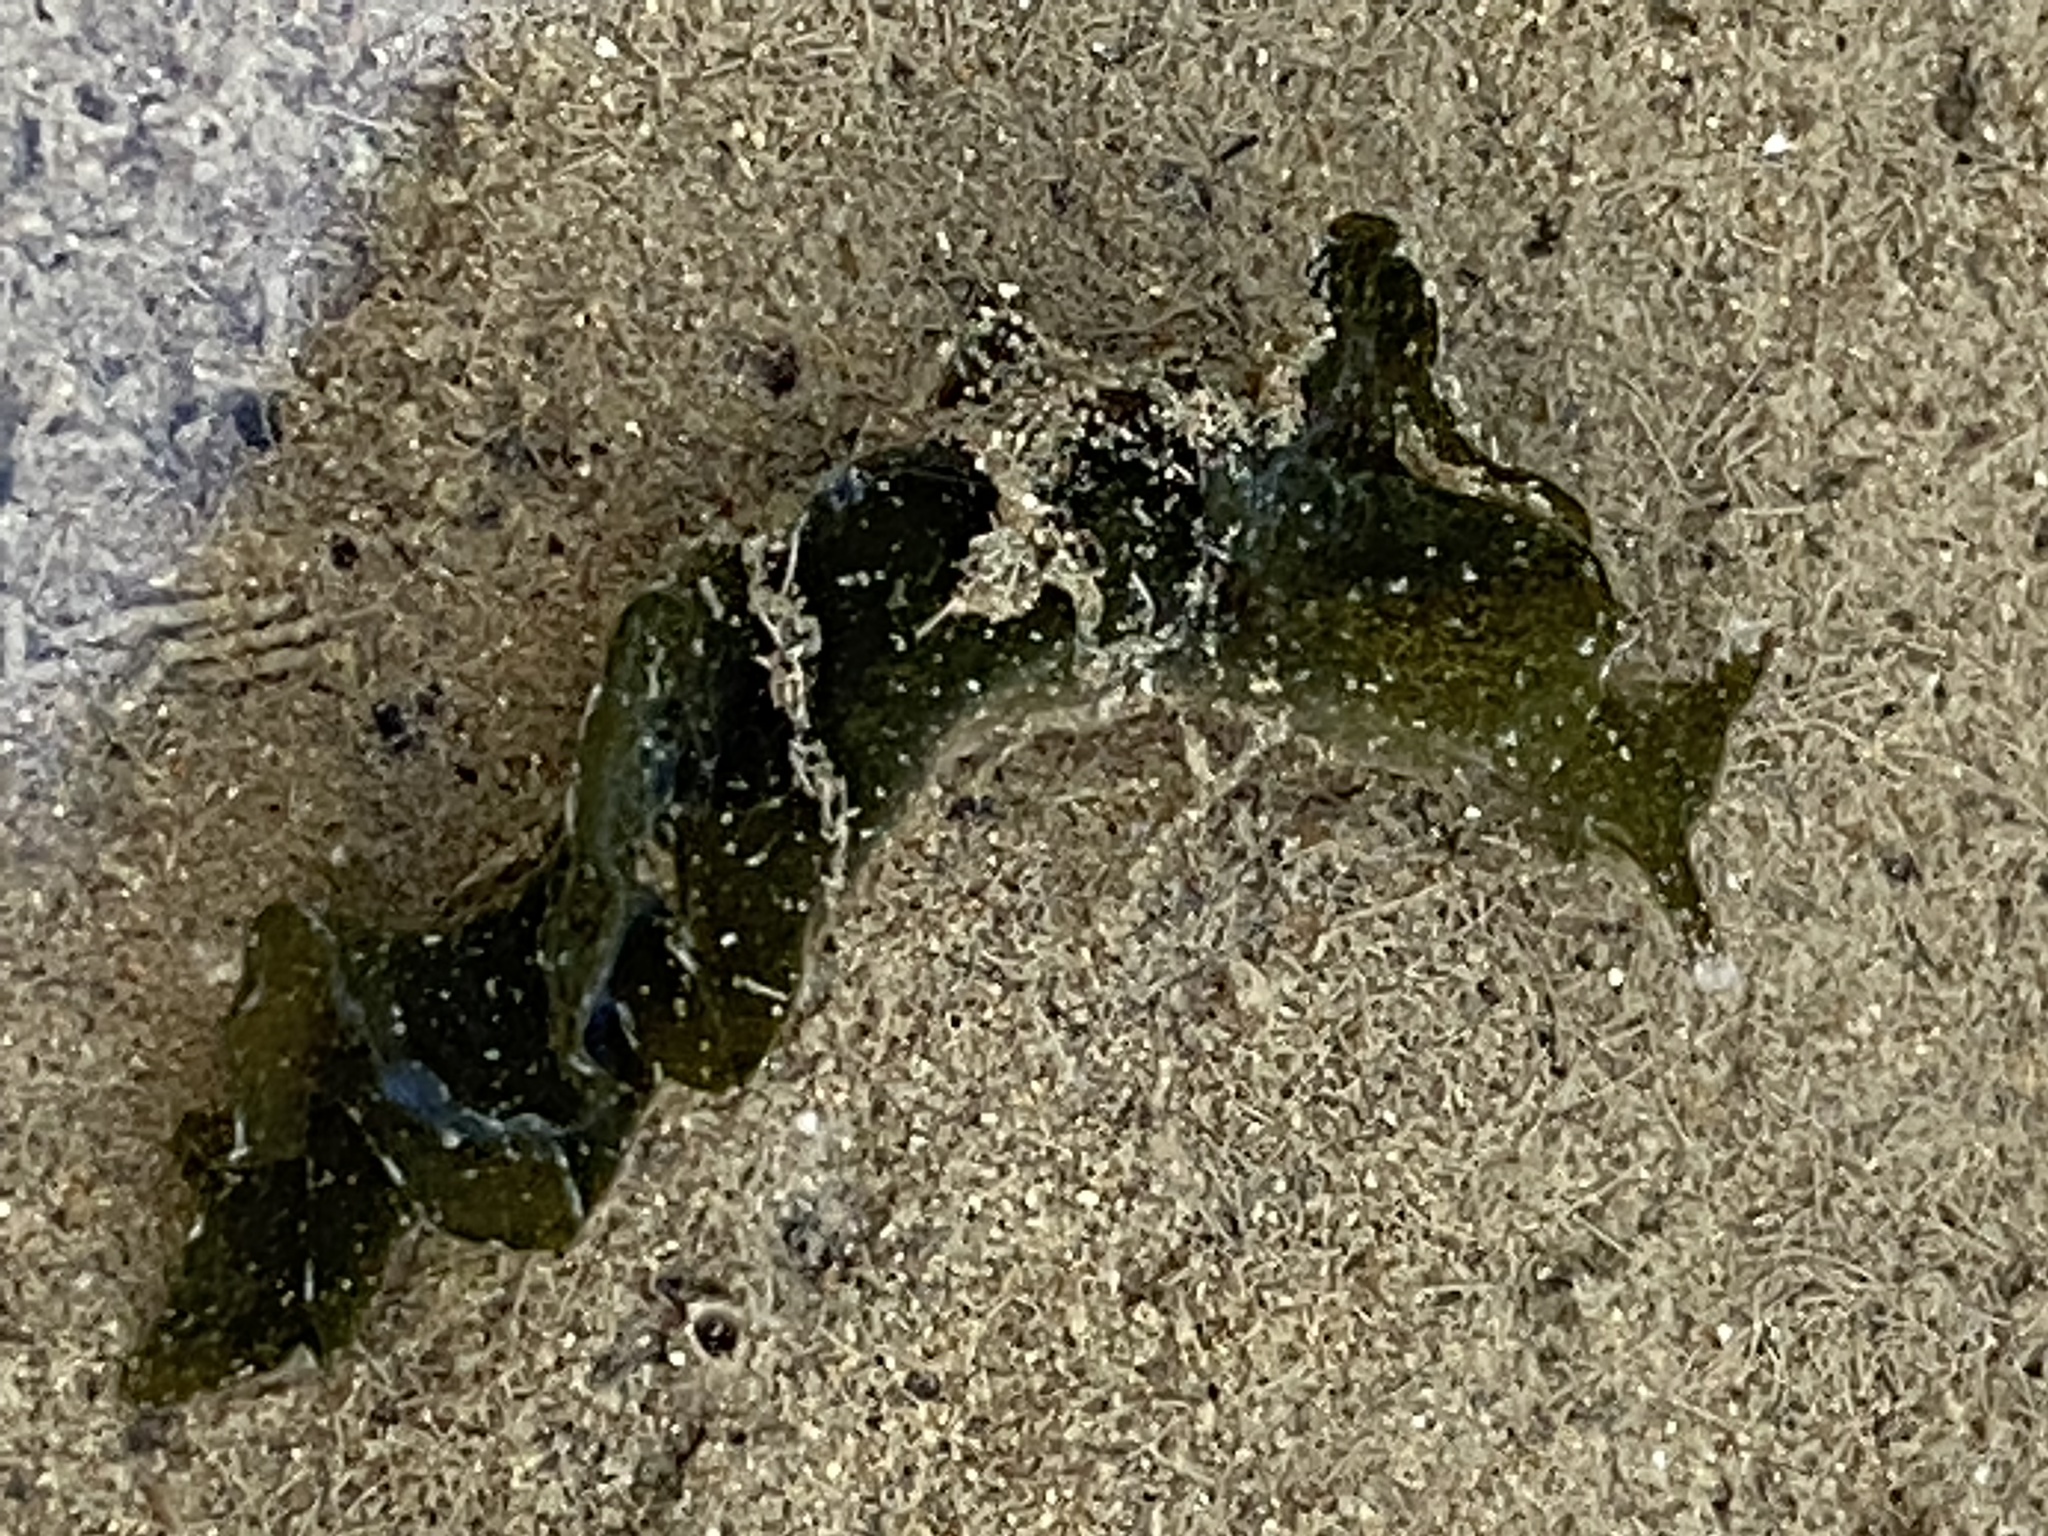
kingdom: Animalia
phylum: Mollusca
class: Gastropoda
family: Plakobranchidae
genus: Elysia
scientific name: Elysia hedgpethi
